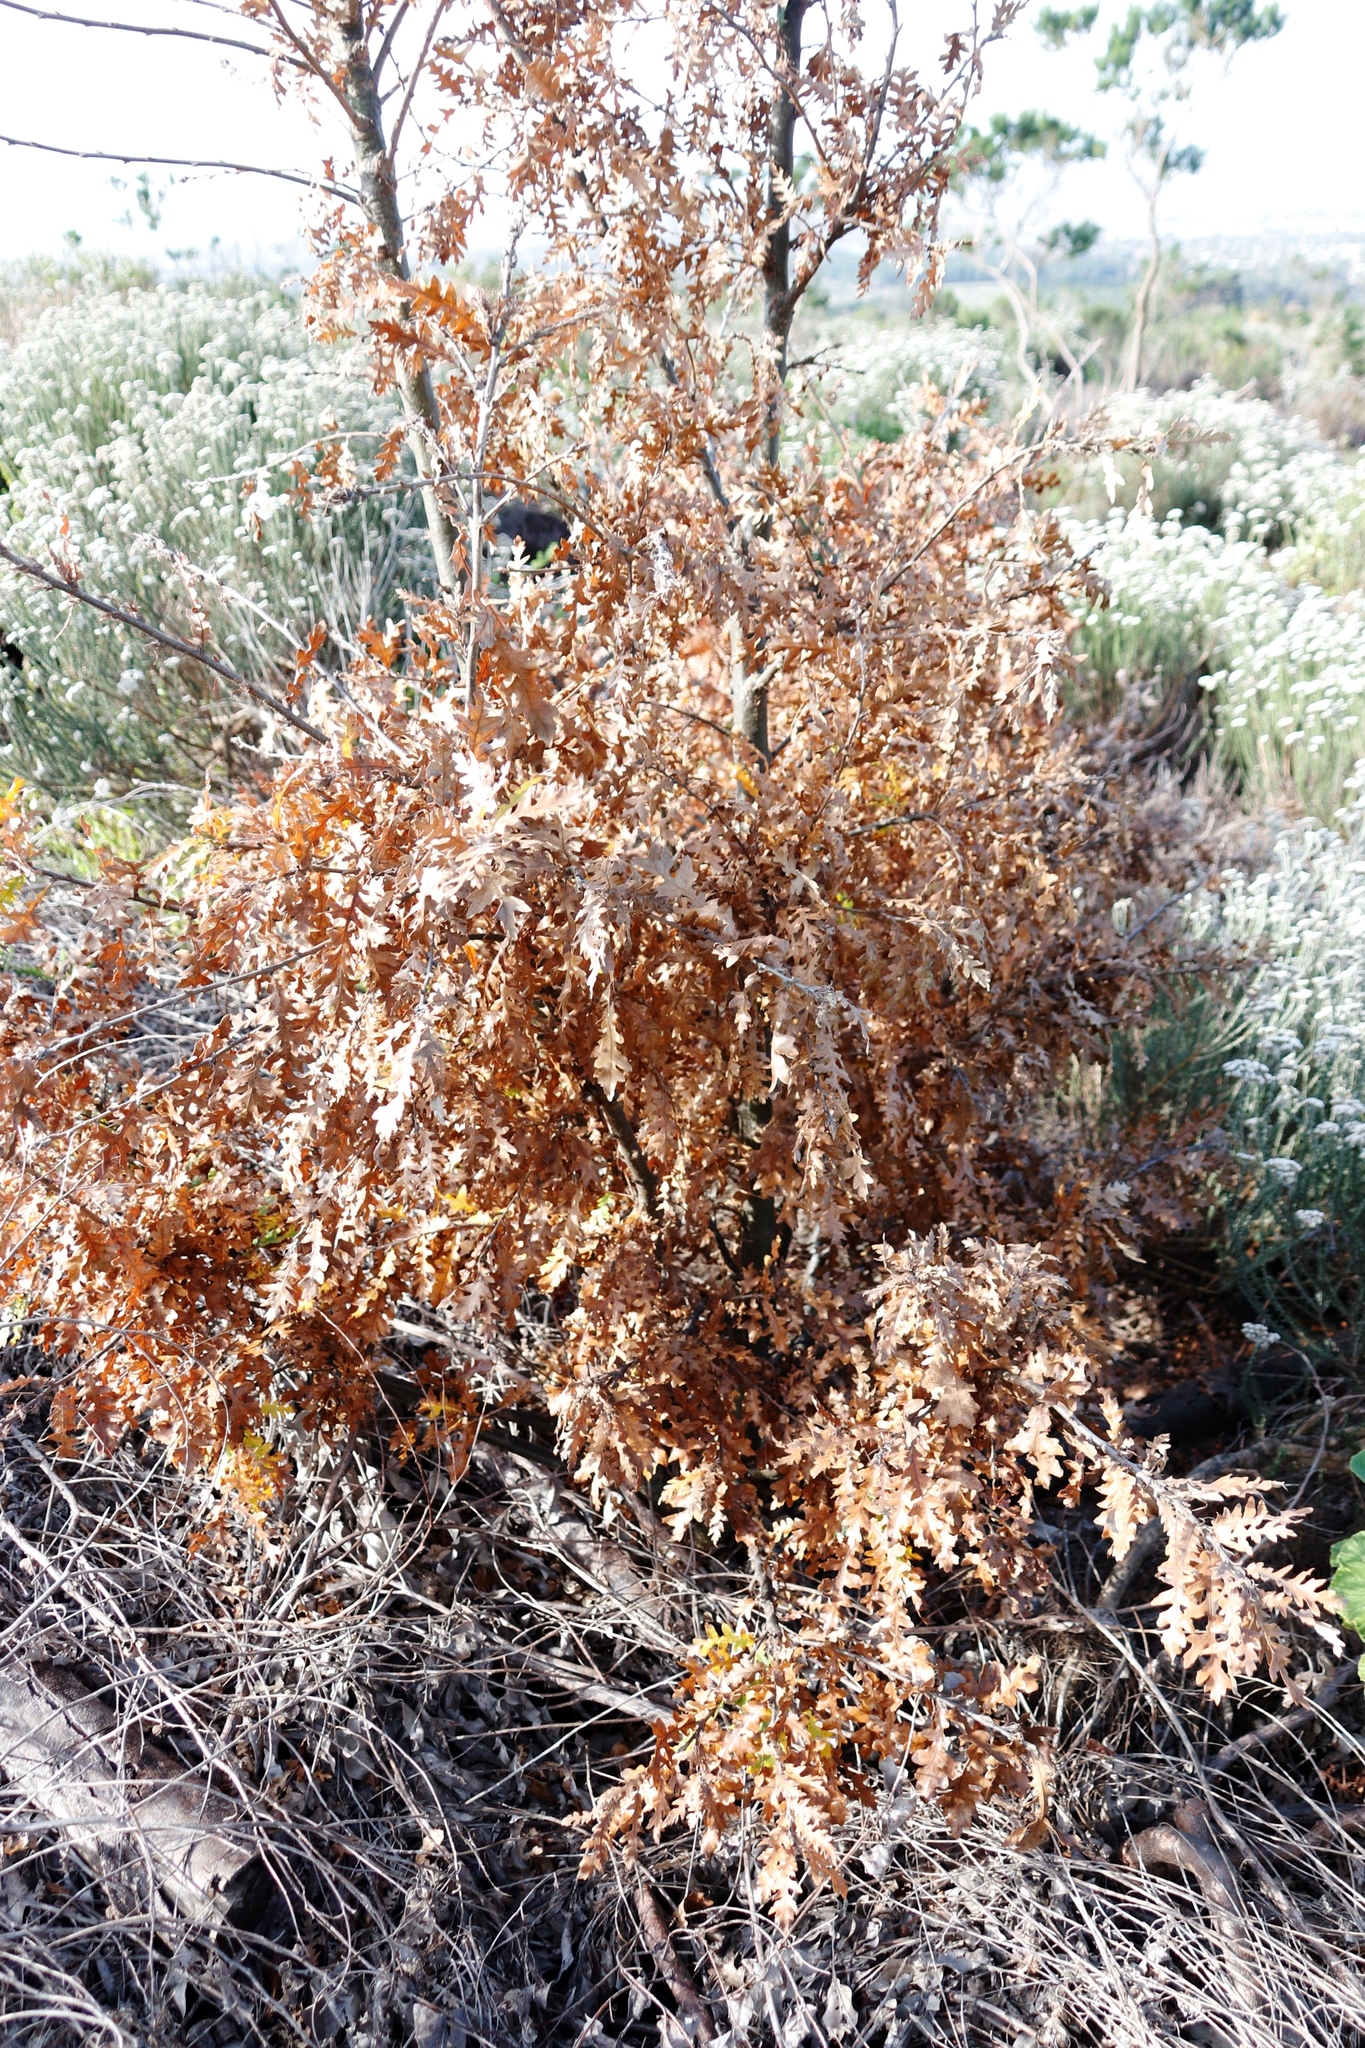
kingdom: Plantae
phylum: Tracheophyta
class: Magnoliopsida
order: Fagales
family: Fagaceae
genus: Quercus
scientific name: Quercus cerris
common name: Turkey oak
